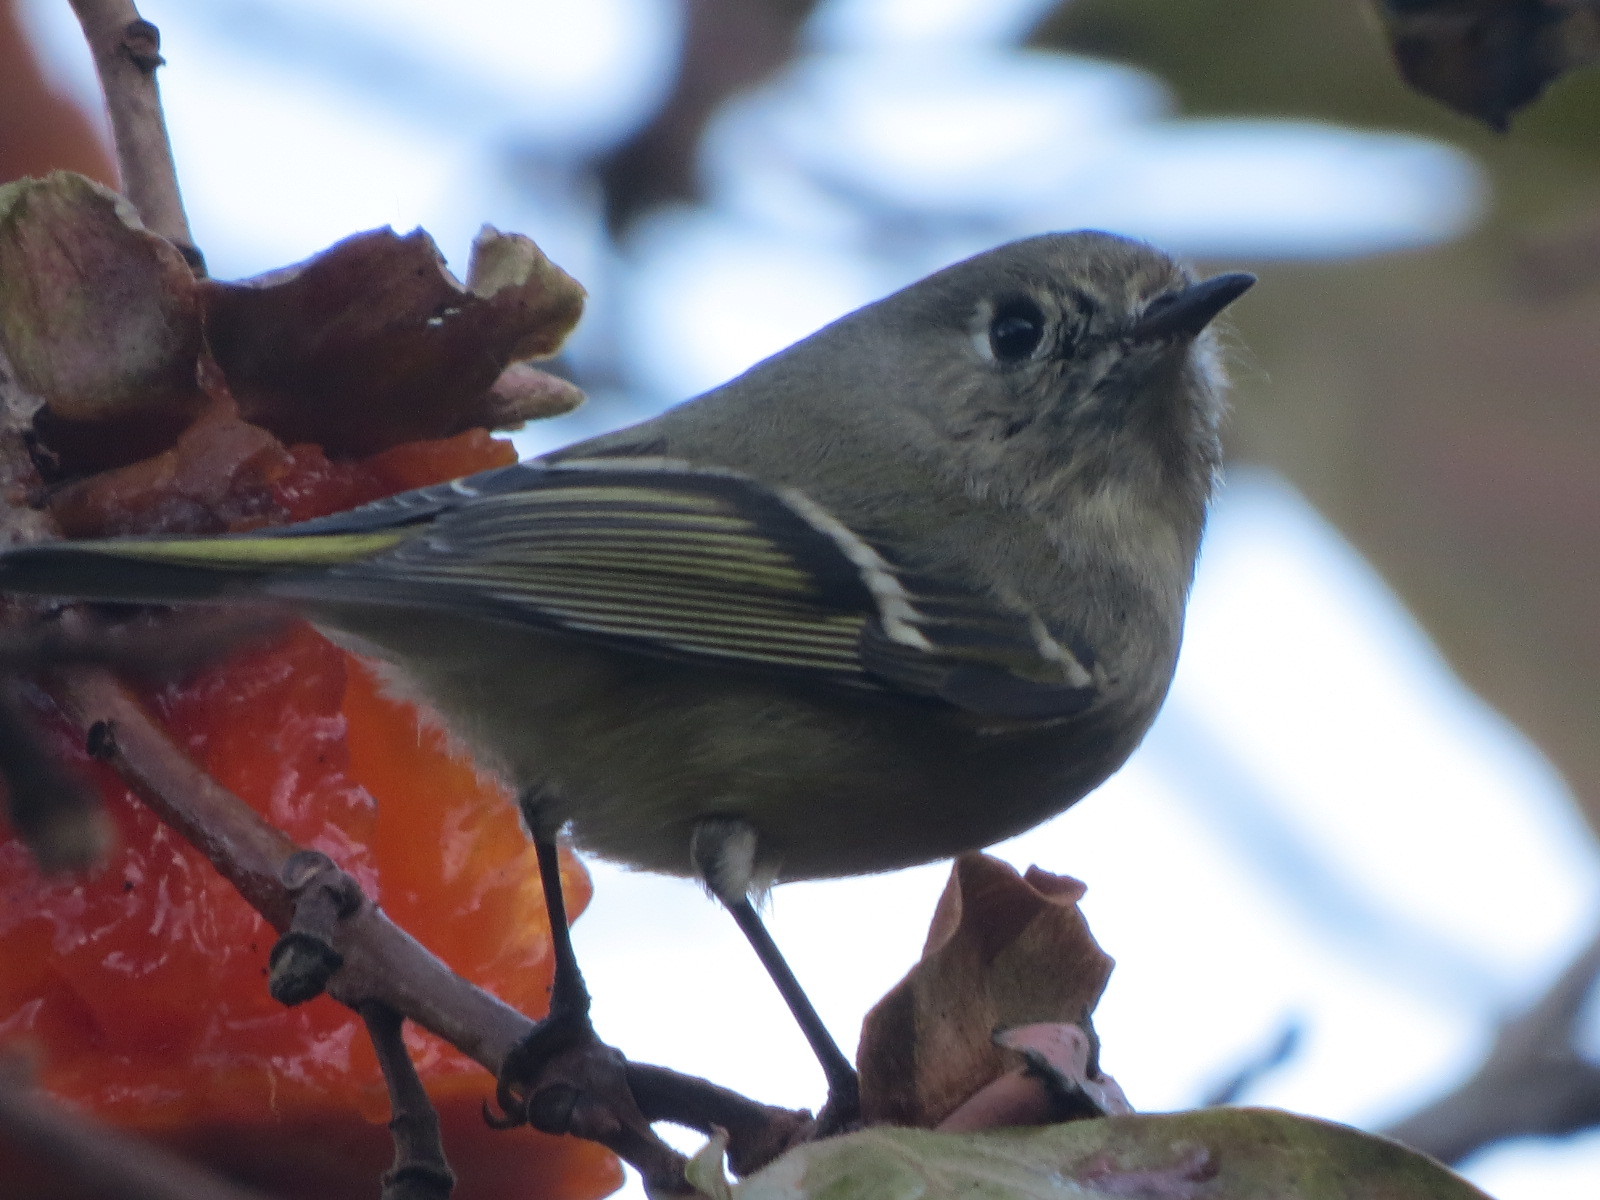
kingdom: Animalia
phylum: Chordata
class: Aves
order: Passeriformes
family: Regulidae
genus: Regulus
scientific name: Regulus calendula
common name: Ruby-crowned kinglet
